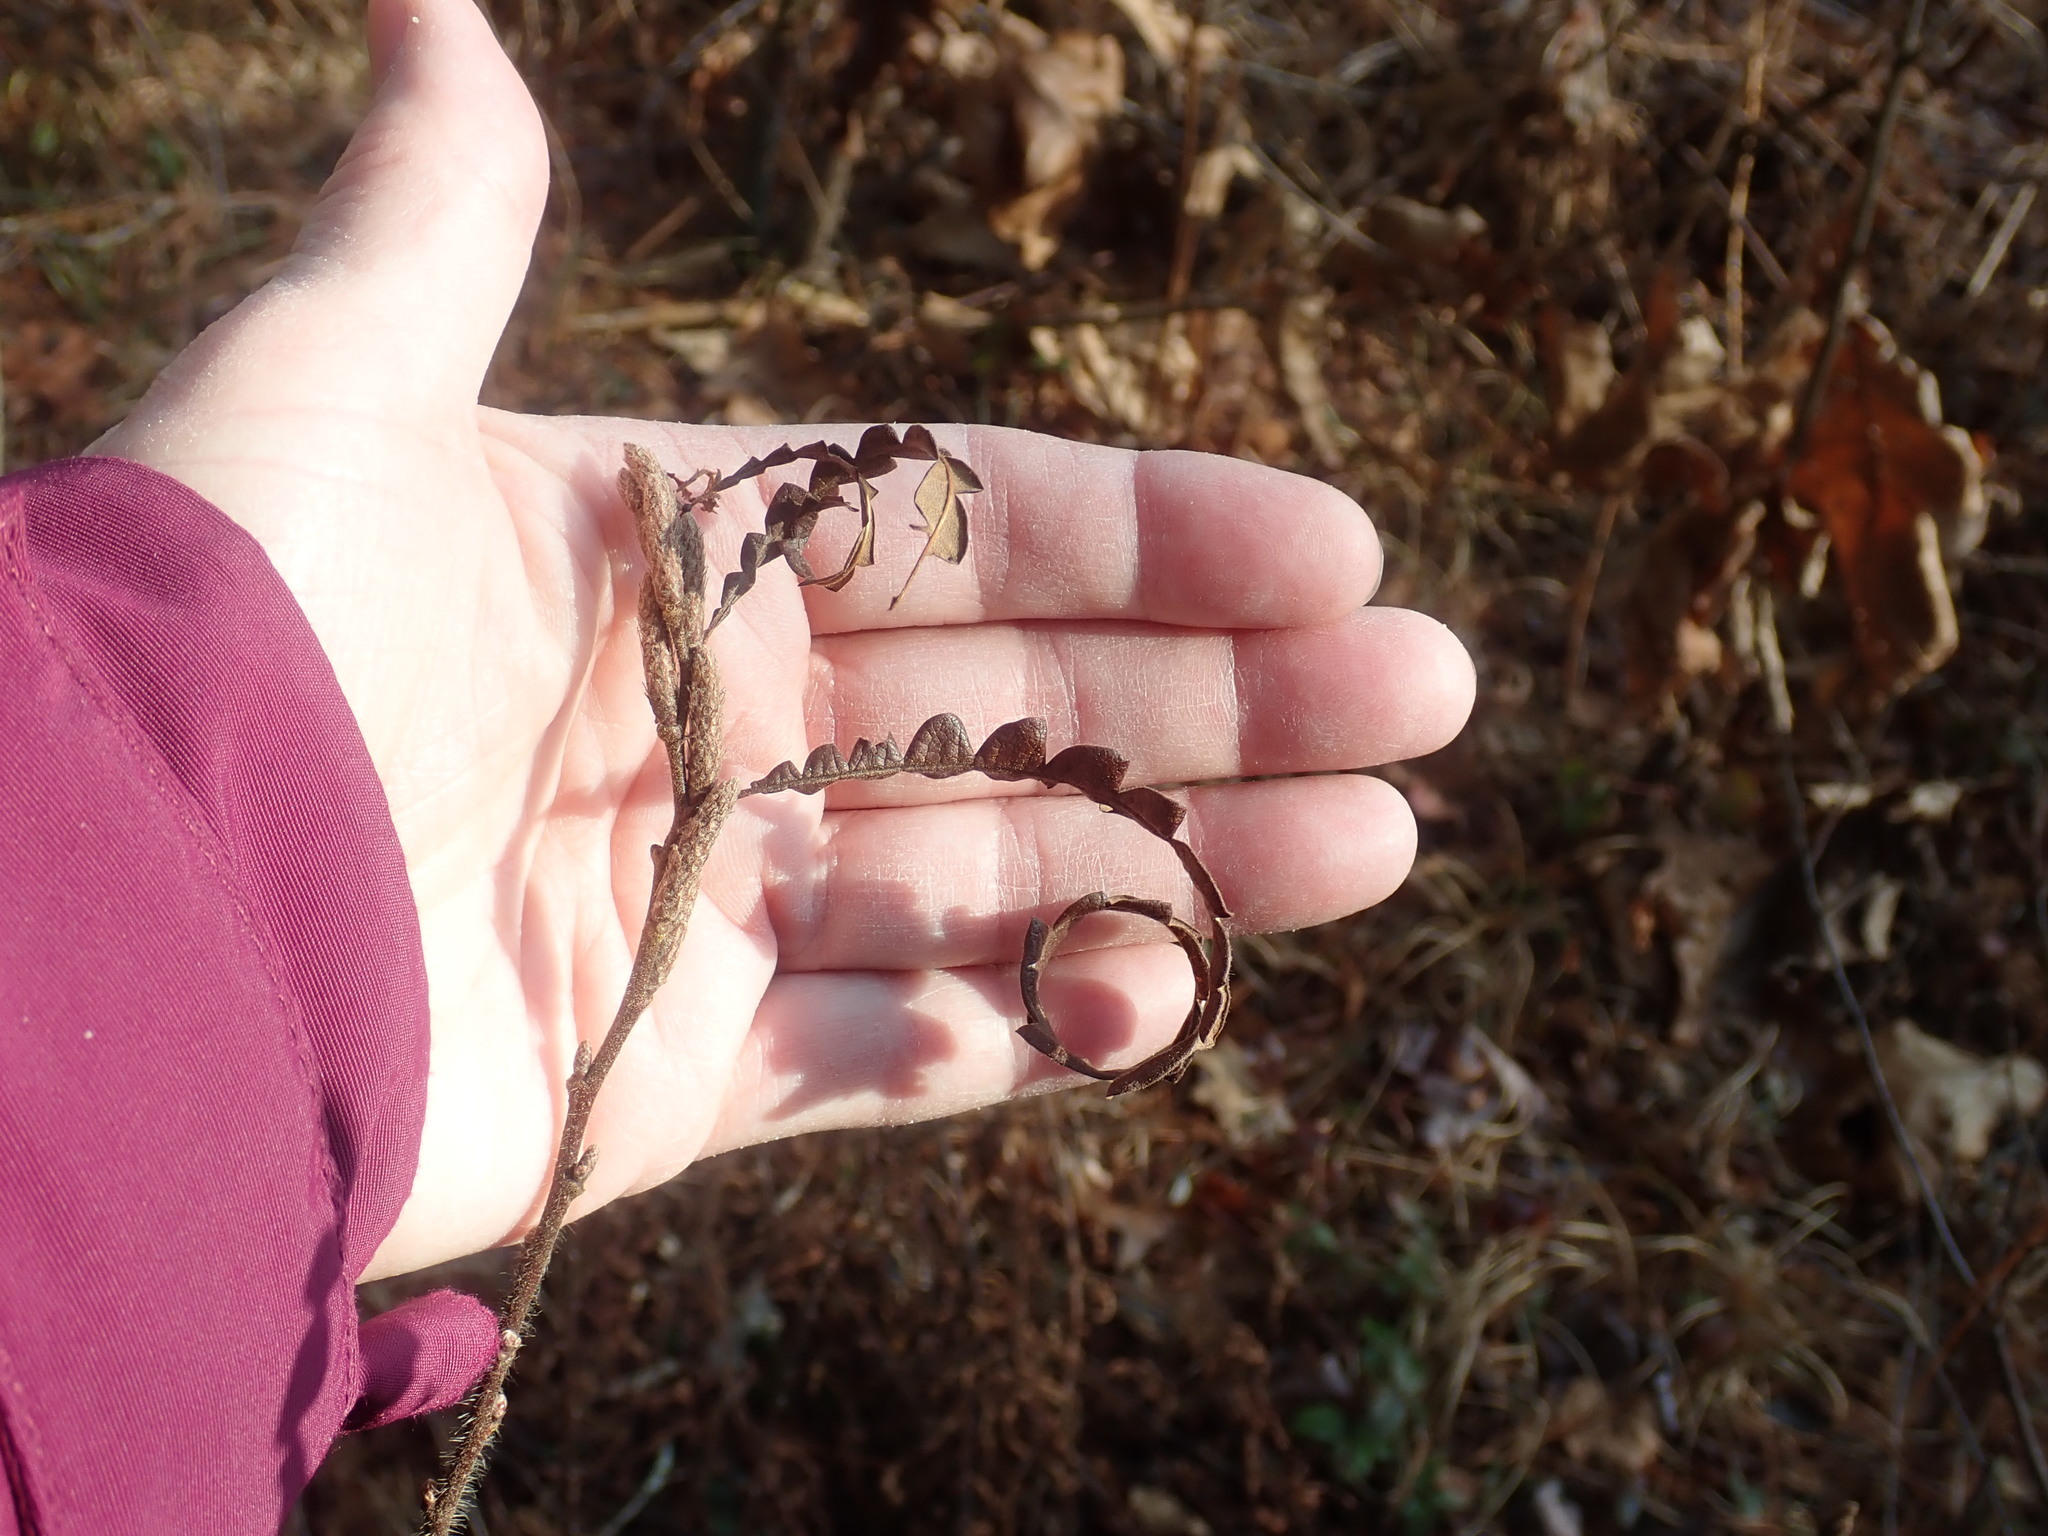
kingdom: Plantae
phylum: Tracheophyta
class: Magnoliopsida
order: Fagales
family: Myricaceae
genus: Comptonia
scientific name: Comptonia peregrina
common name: Sweet-fern
